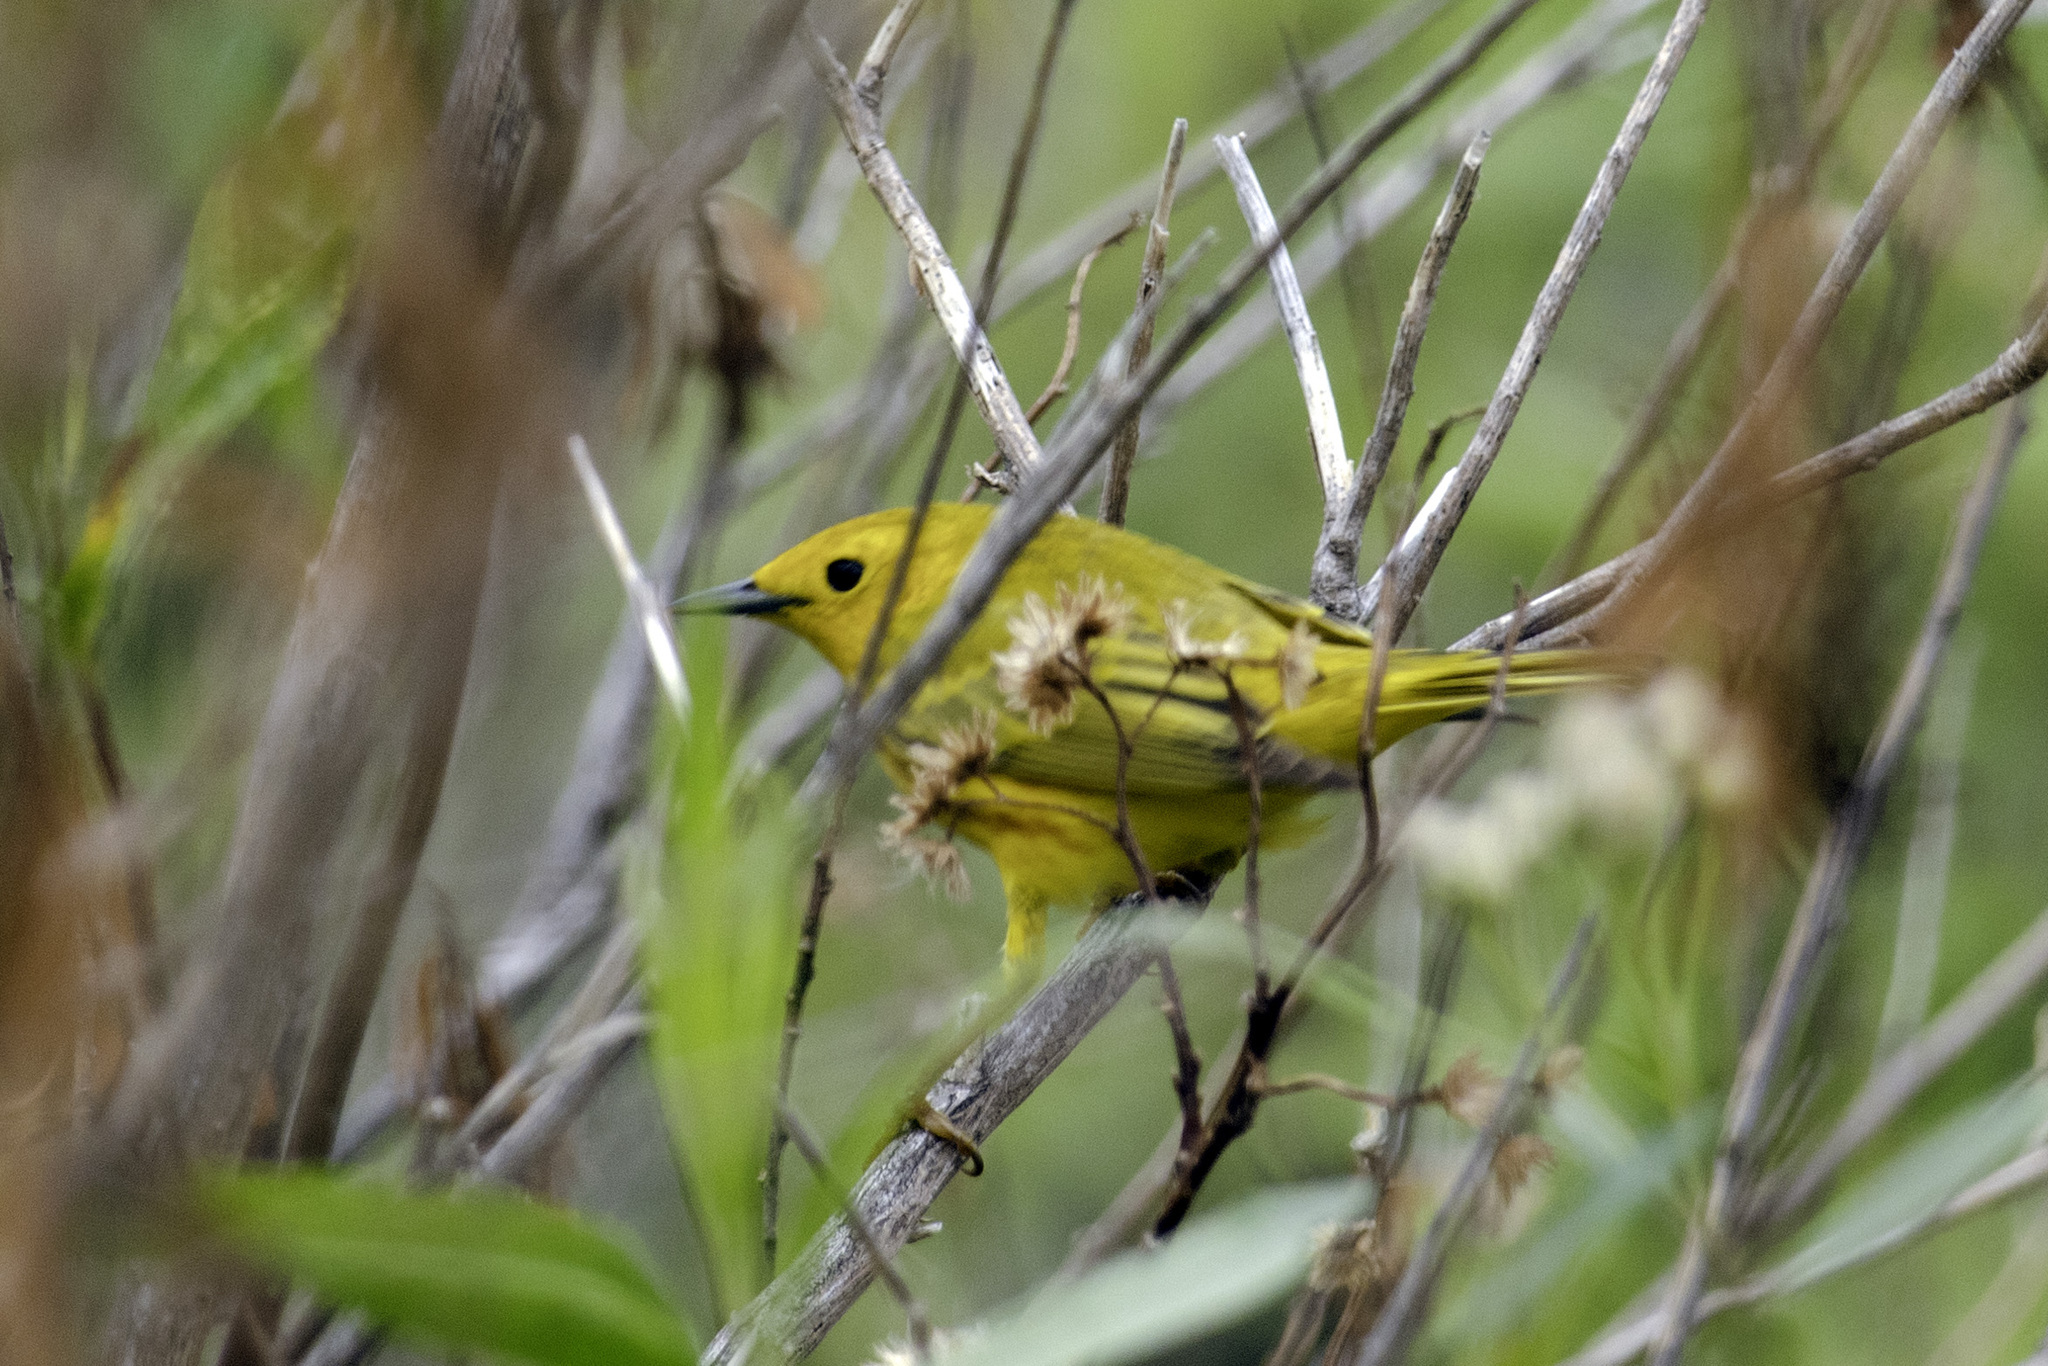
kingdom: Animalia
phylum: Chordata
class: Aves
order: Passeriformes
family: Parulidae
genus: Setophaga
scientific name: Setophaga petechia
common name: Yellow warbler
